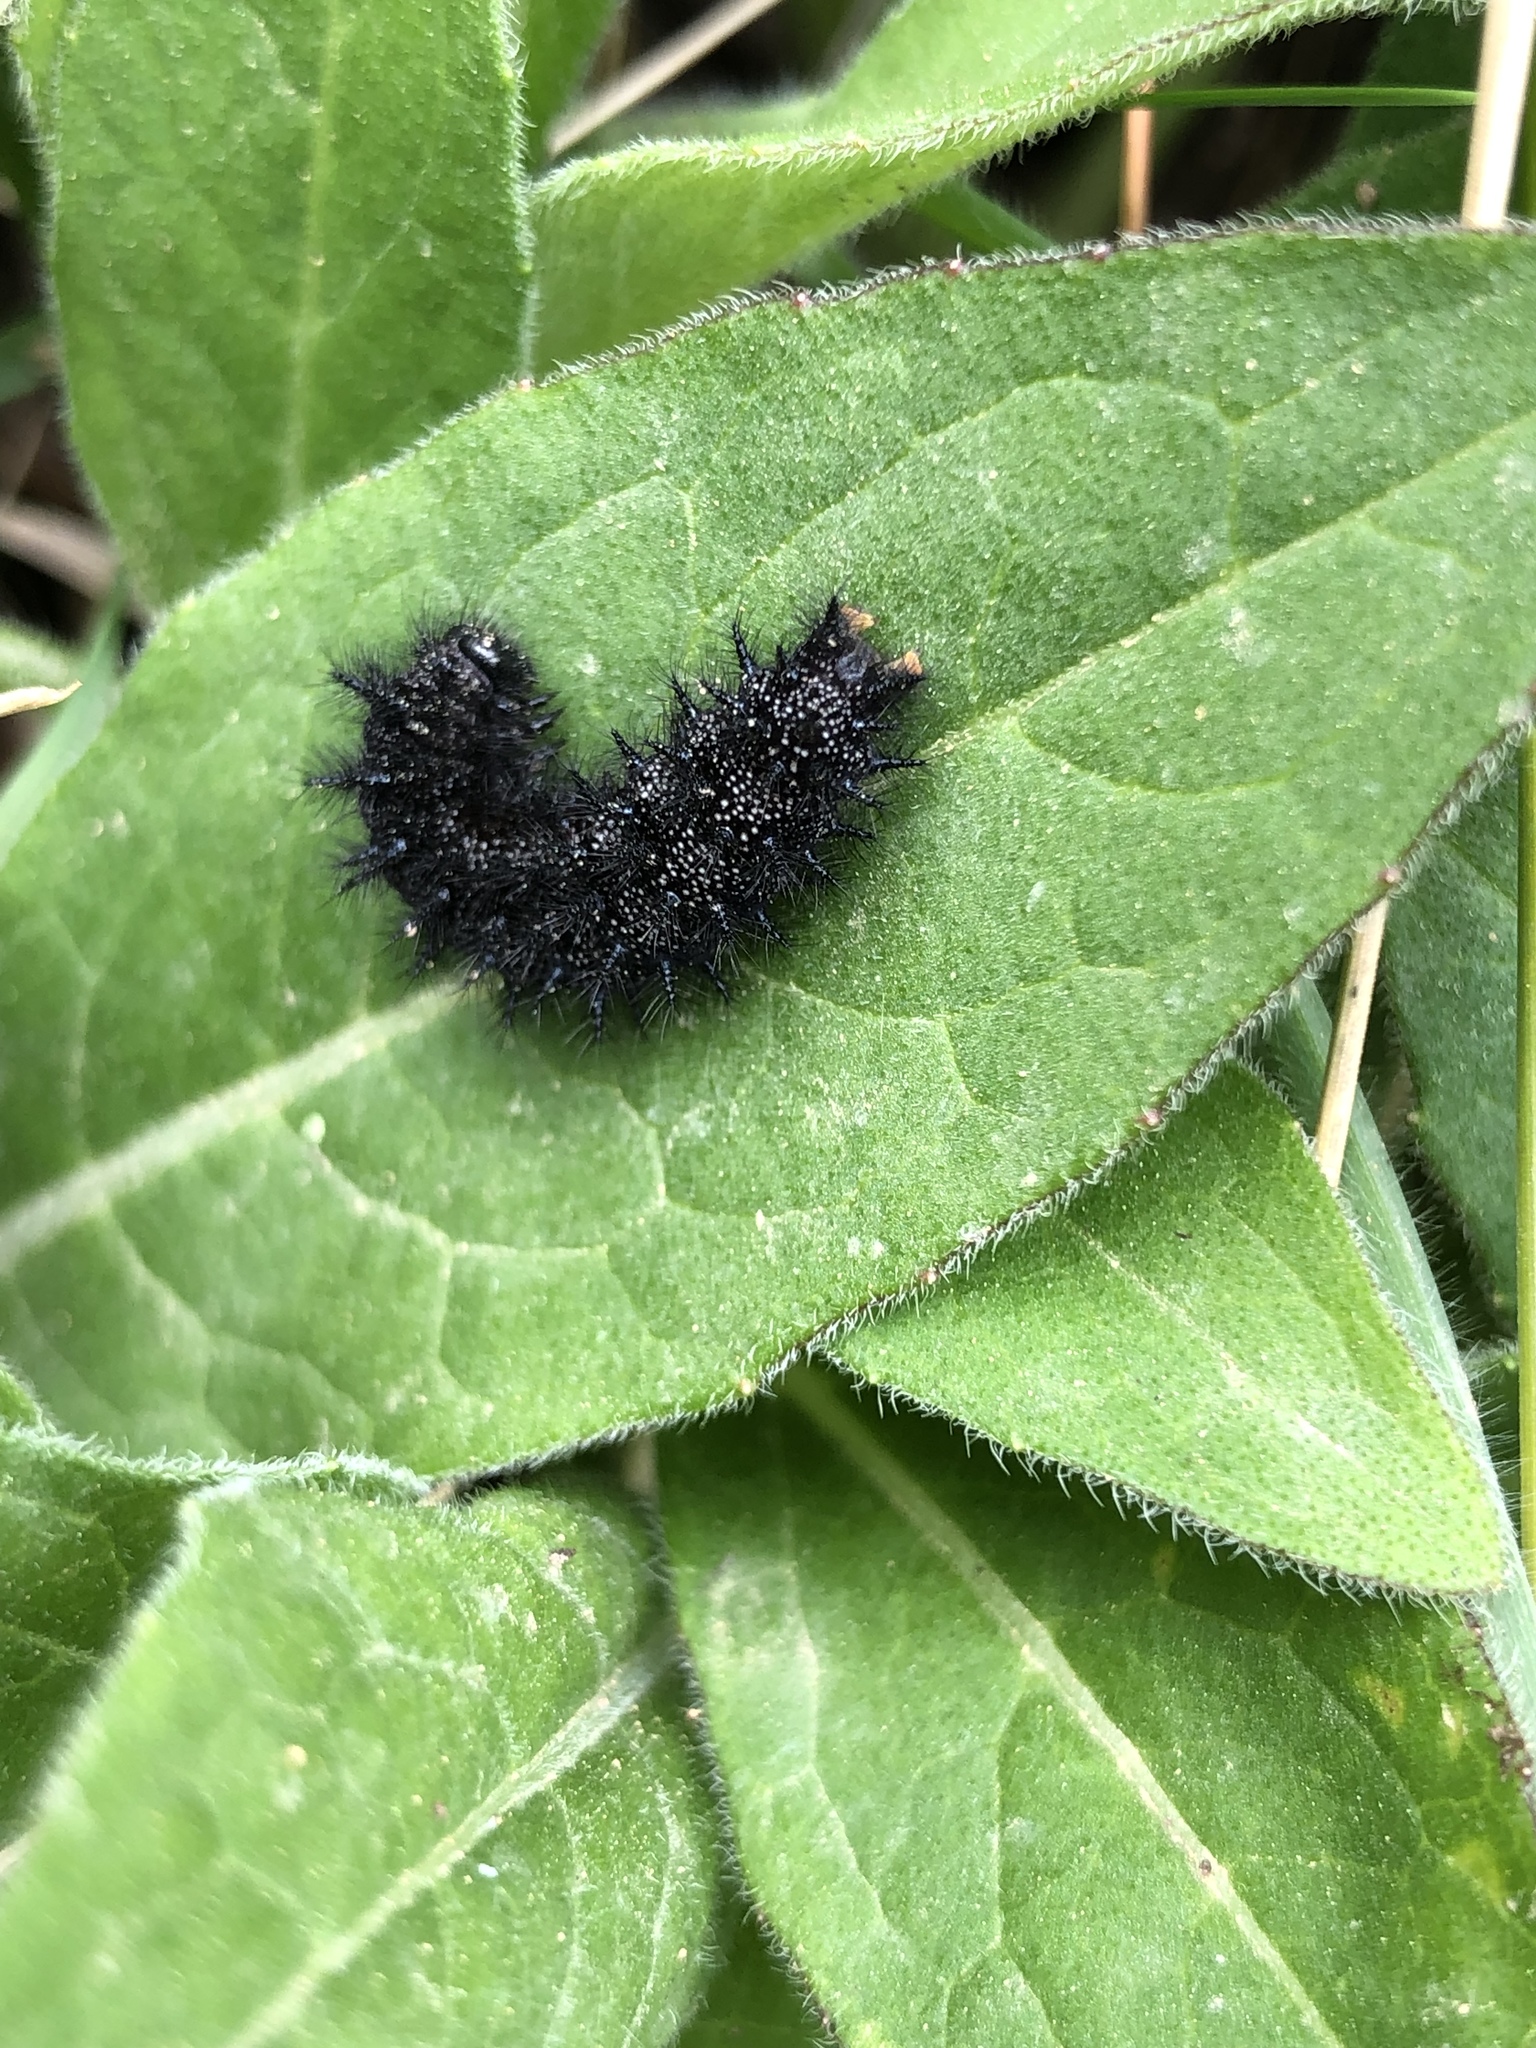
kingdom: Animalia
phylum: Arthropoda
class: Insecta
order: Lepidoptera
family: Nymphalidae
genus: Euphydryas
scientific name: Euphydryas aurinia
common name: Marsh fritillary
